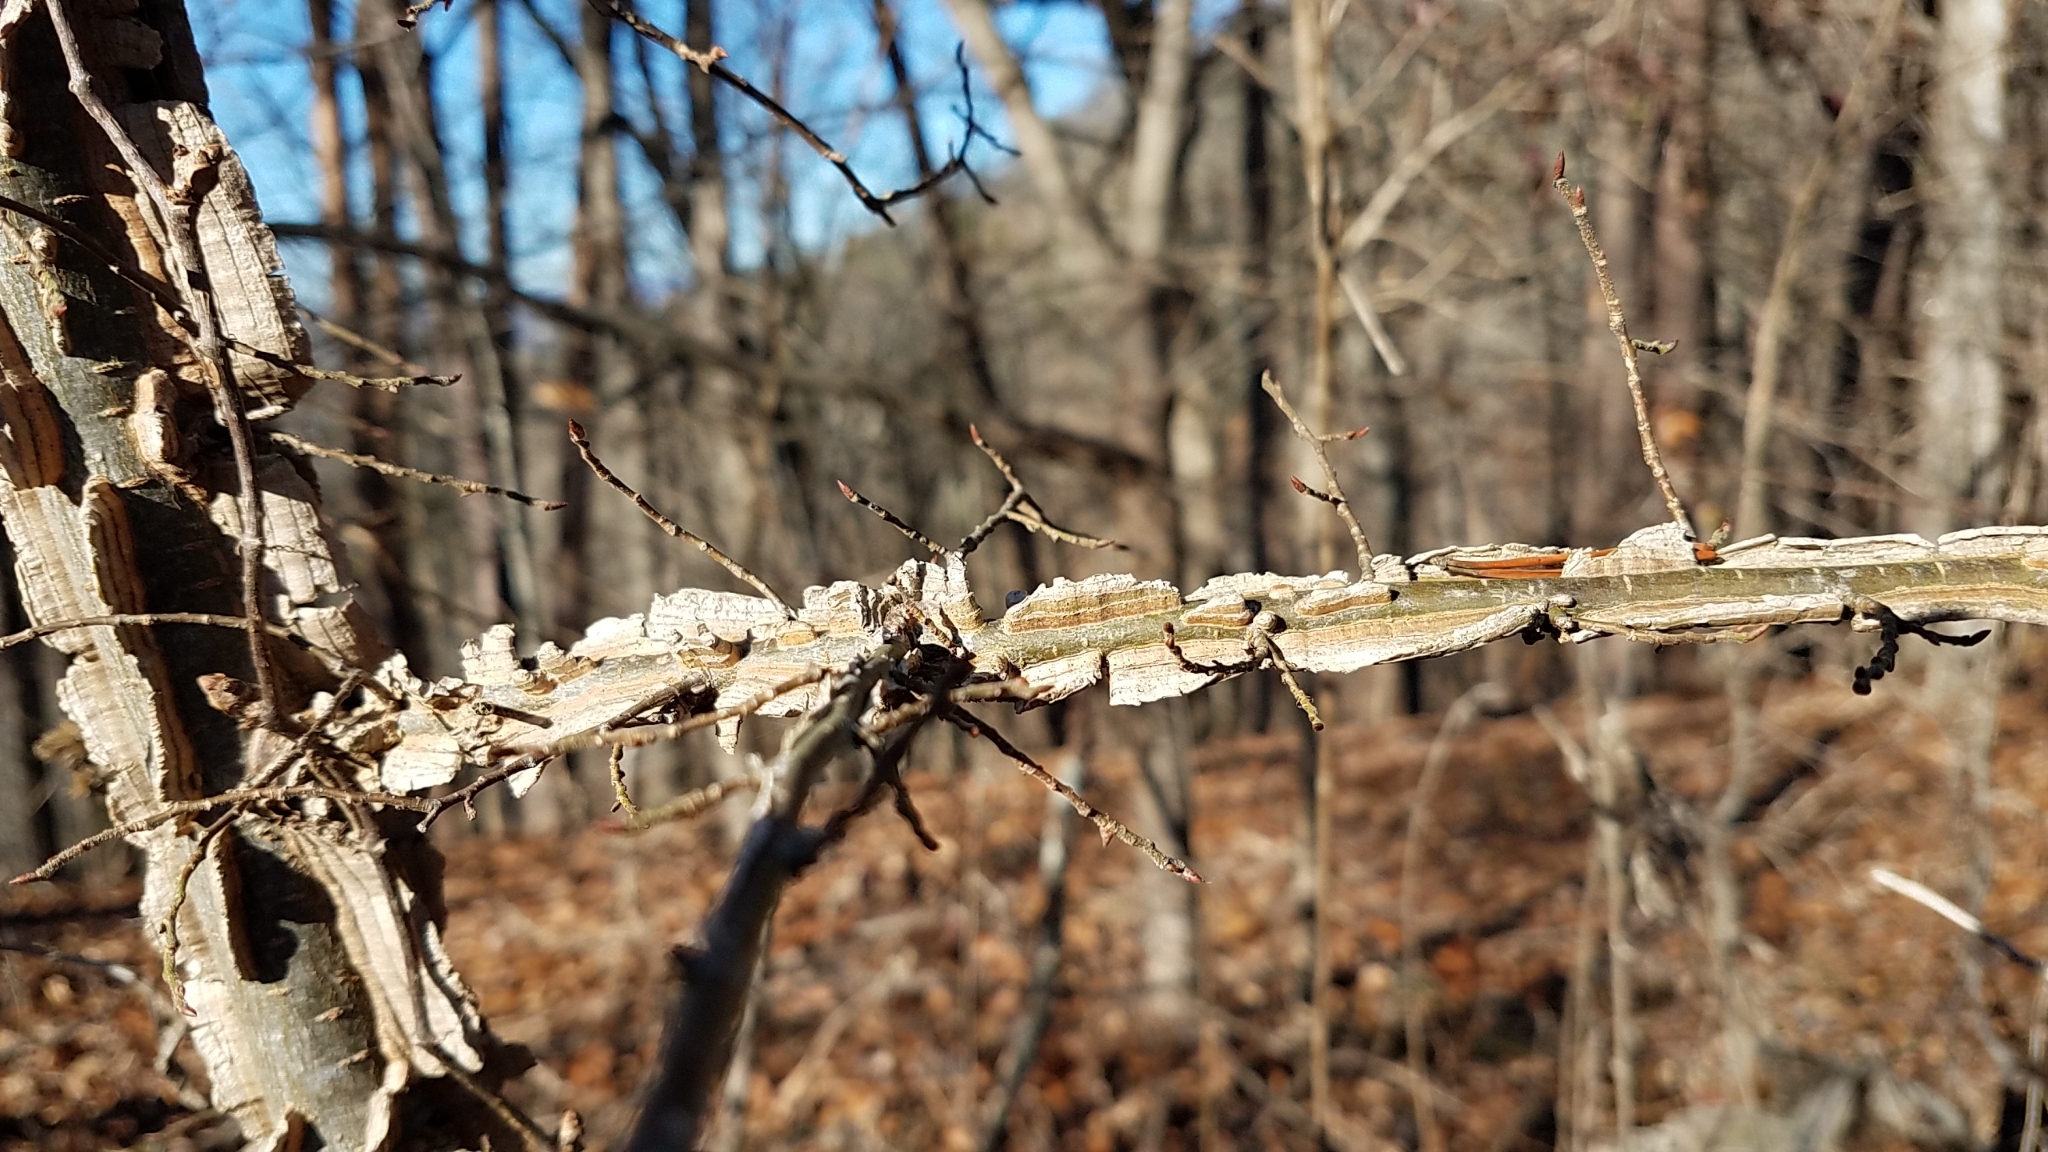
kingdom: Plantae
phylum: Tracheophyta
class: Magnoliopsida
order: Rosales
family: Ulmaceae
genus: Ulmus
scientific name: Ulmus alata
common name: Winged elm
